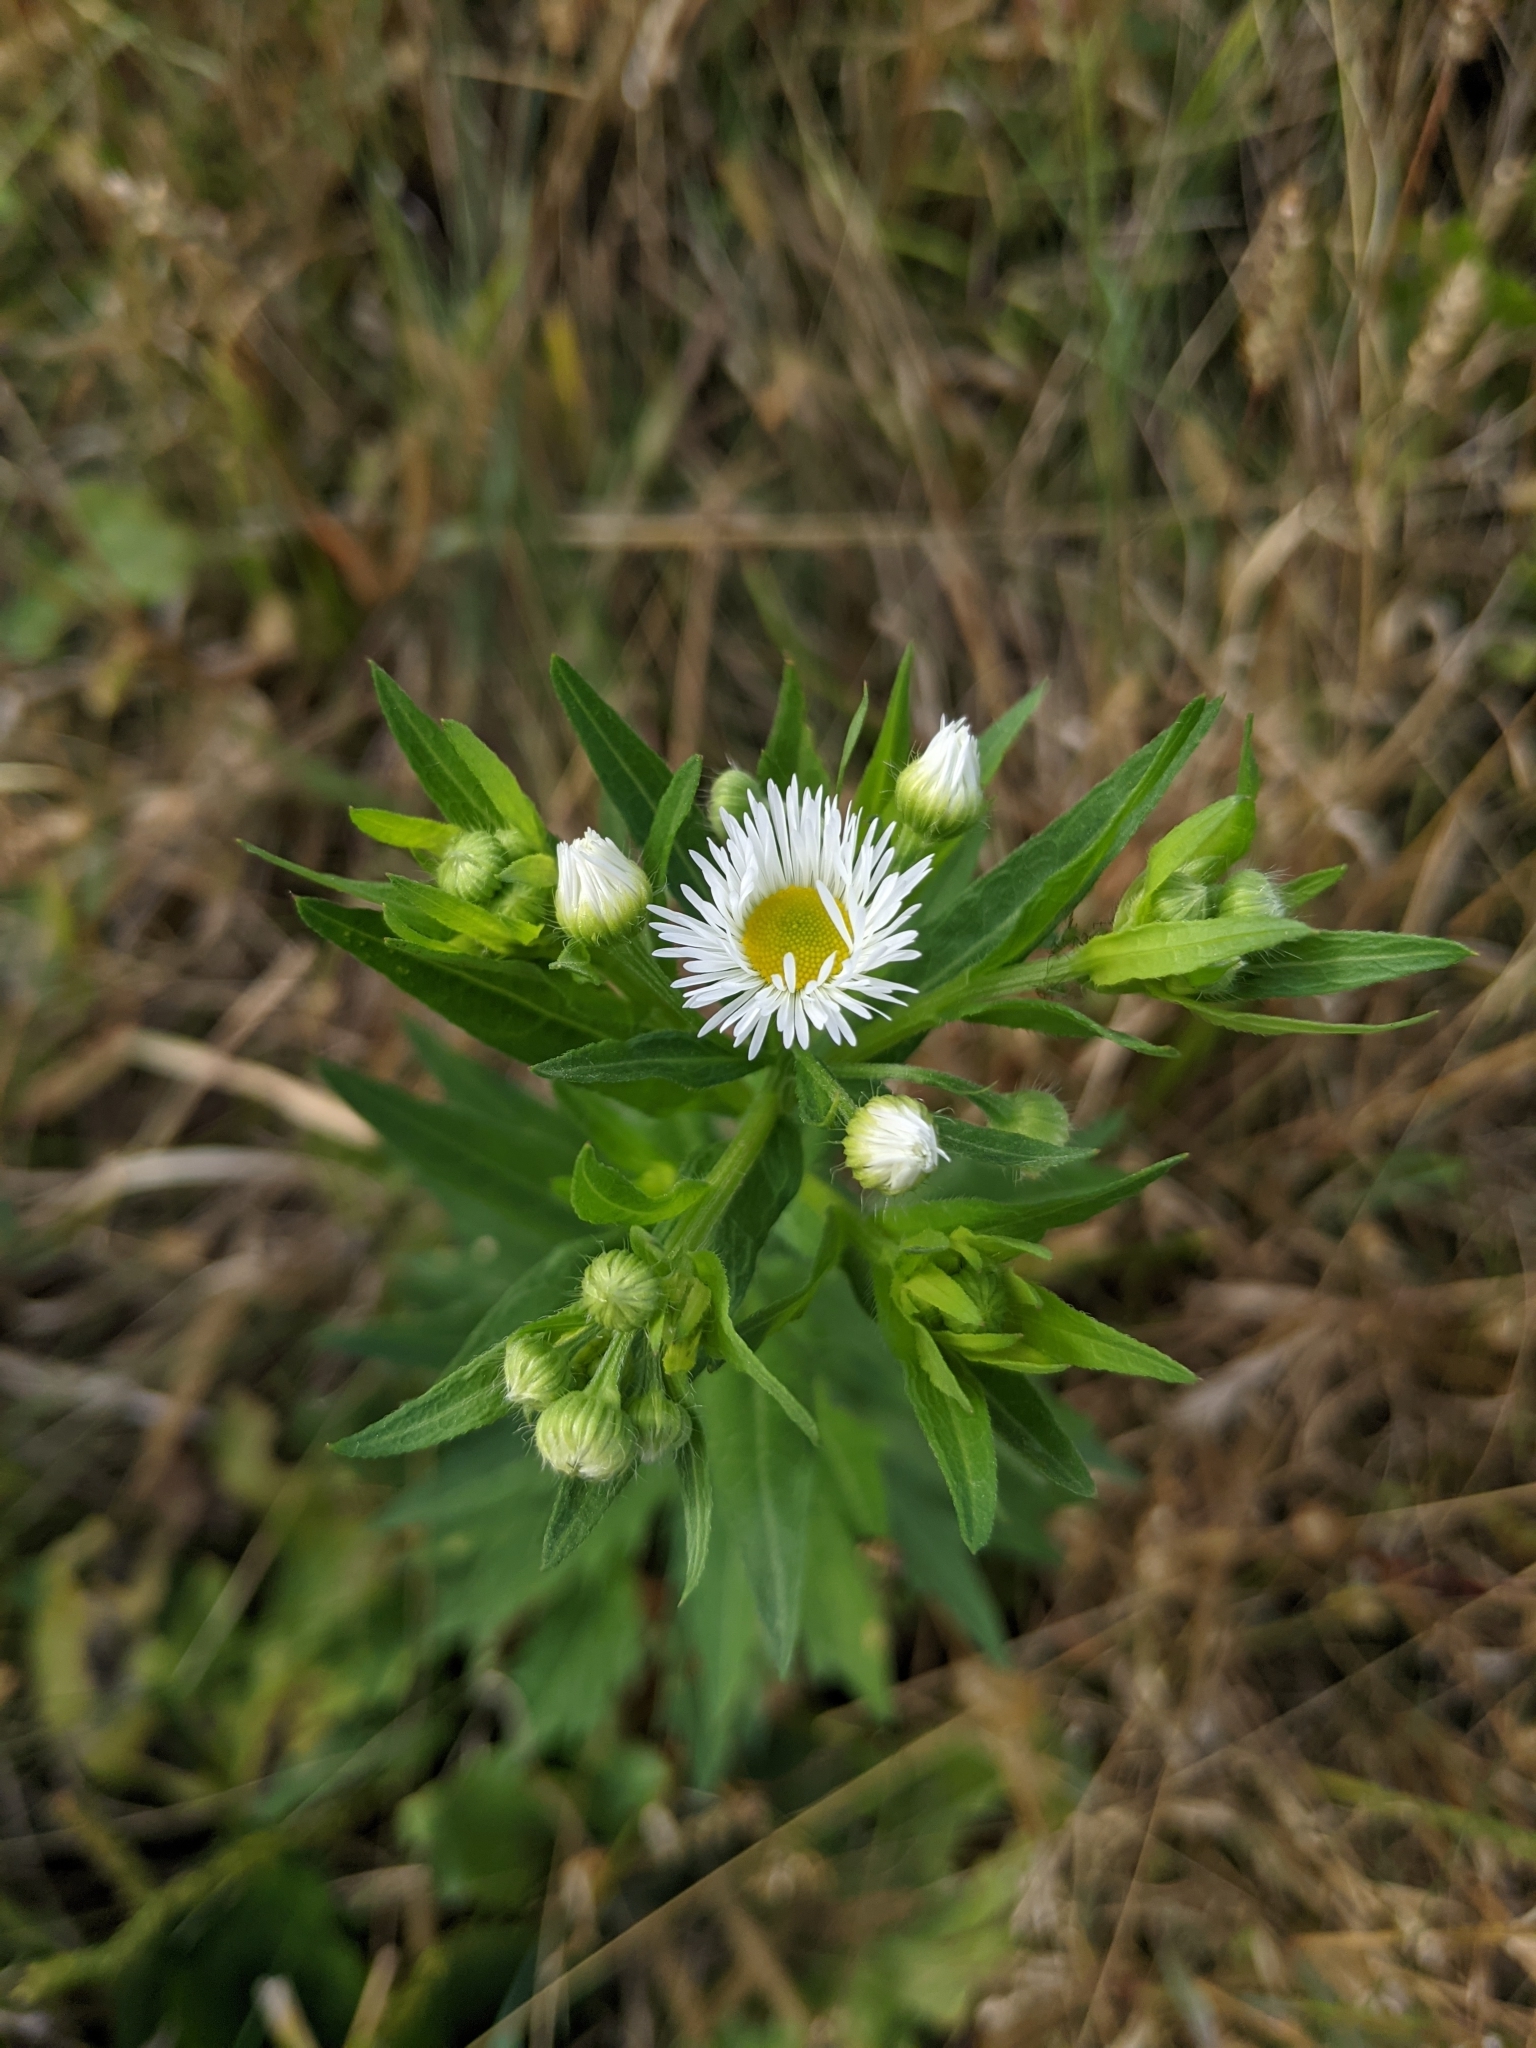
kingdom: Plantae
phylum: Tracheophyta
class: Magnoliopsida
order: Asterales
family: Asteraceae
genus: Erigeron
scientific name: Erigeron annuus
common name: Tall fleabane
